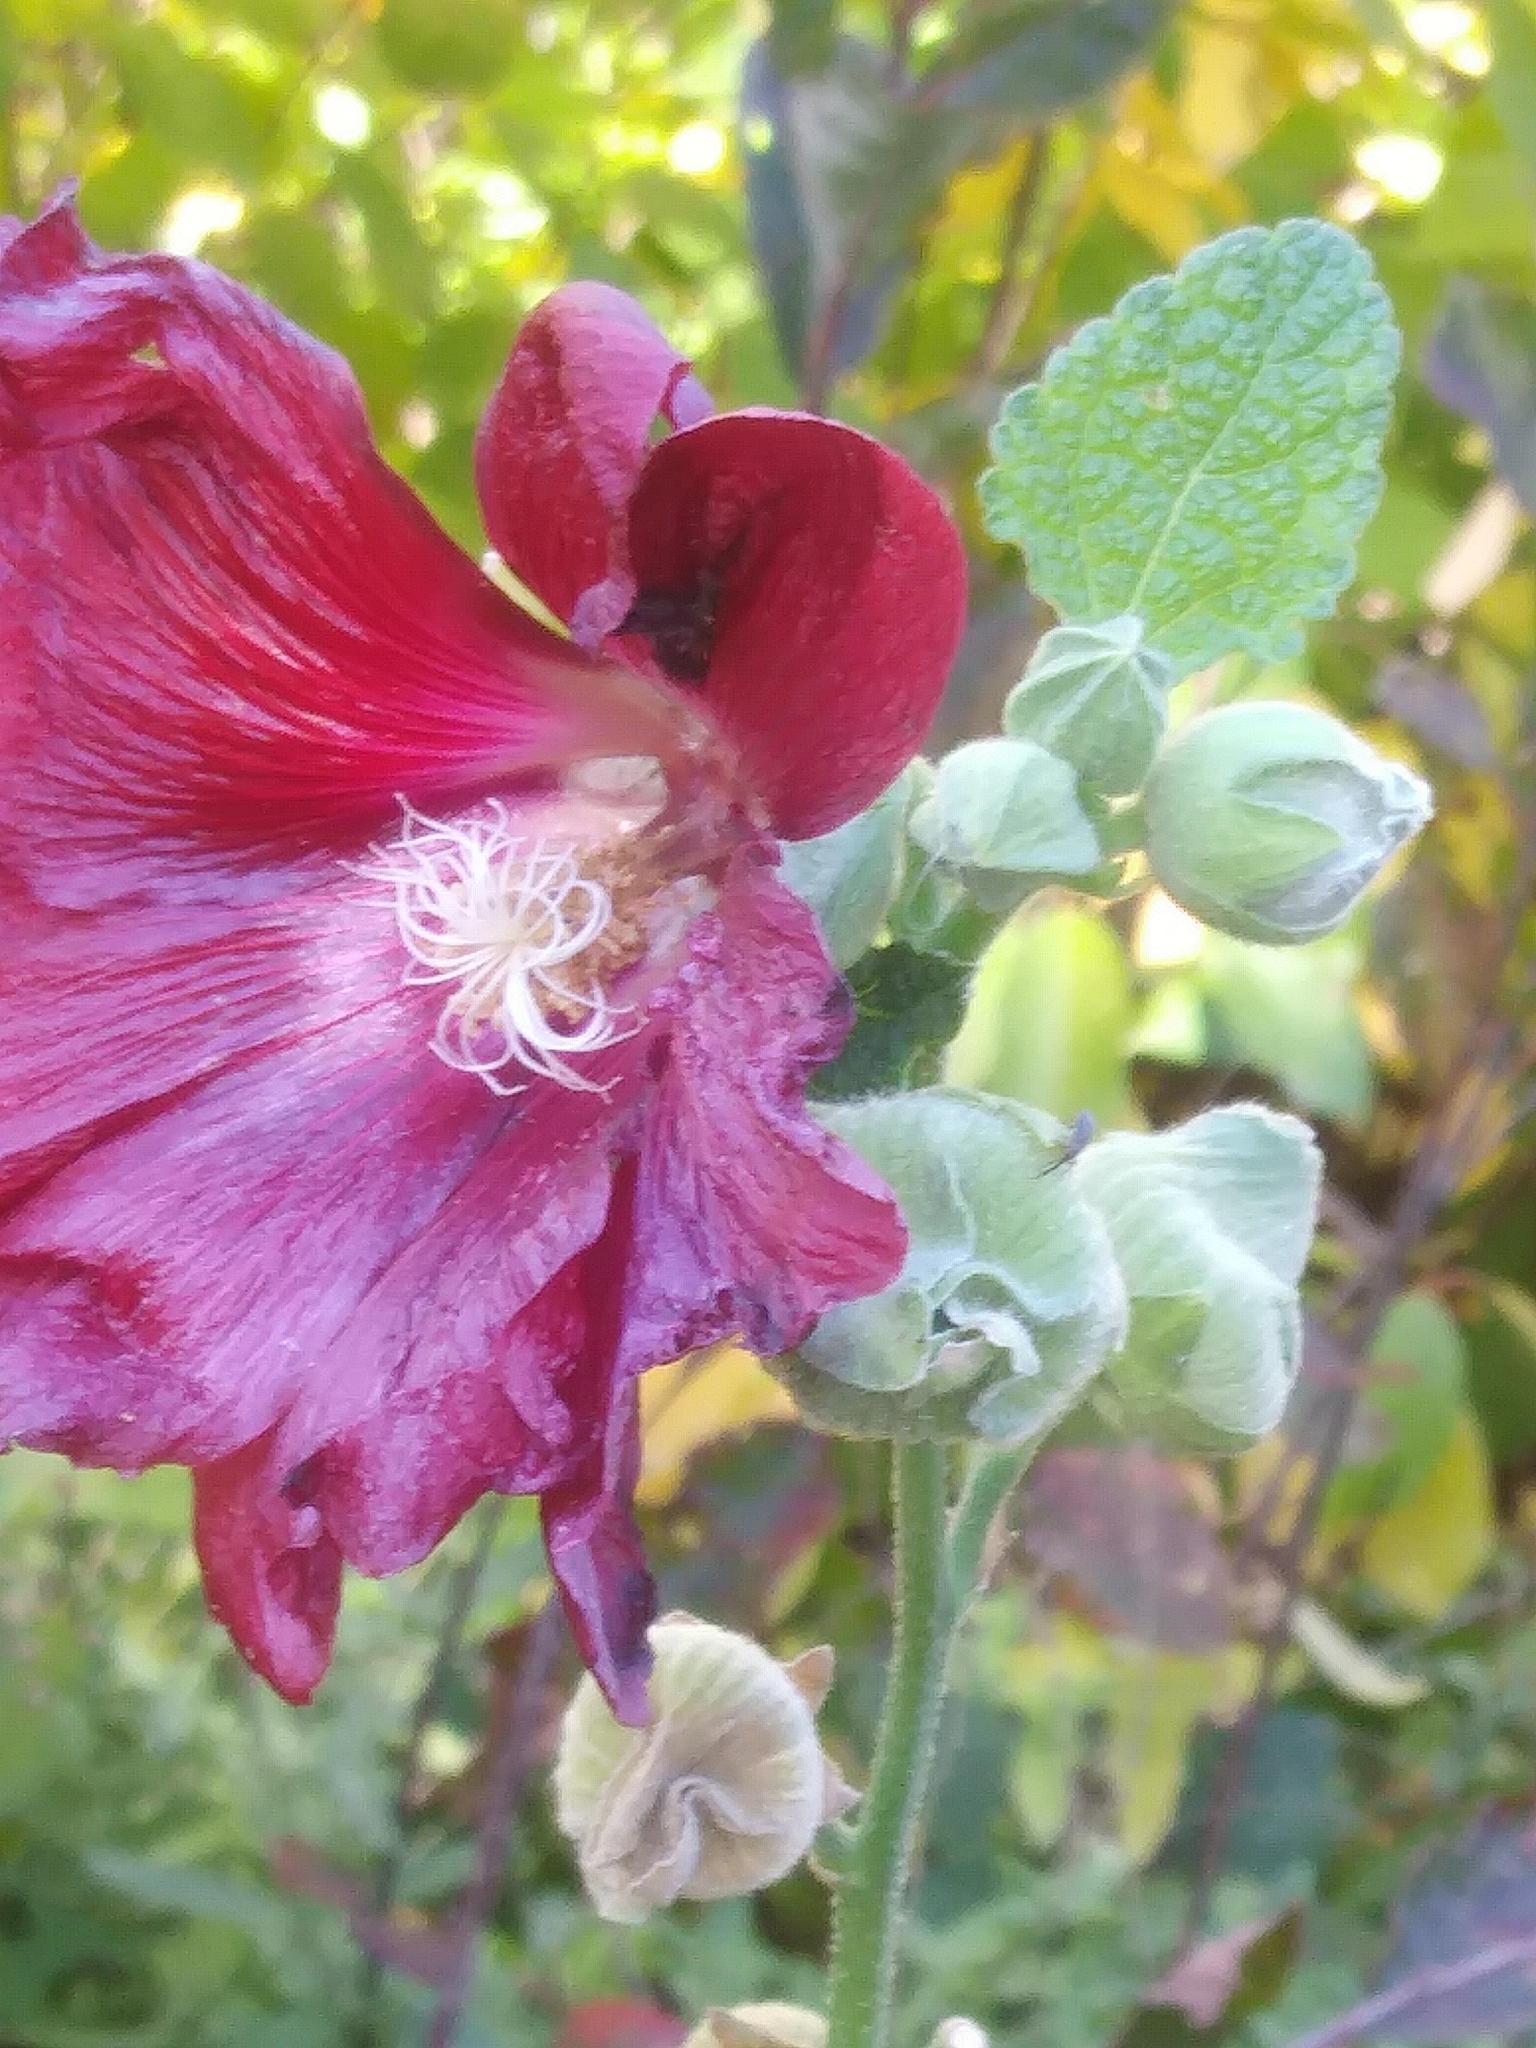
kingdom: Plantae
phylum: Tracheophyta
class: Magnoliopsida
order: Malvales
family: Malvaceae
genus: Alcea
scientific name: Alcea rosea
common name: Hollyhock
